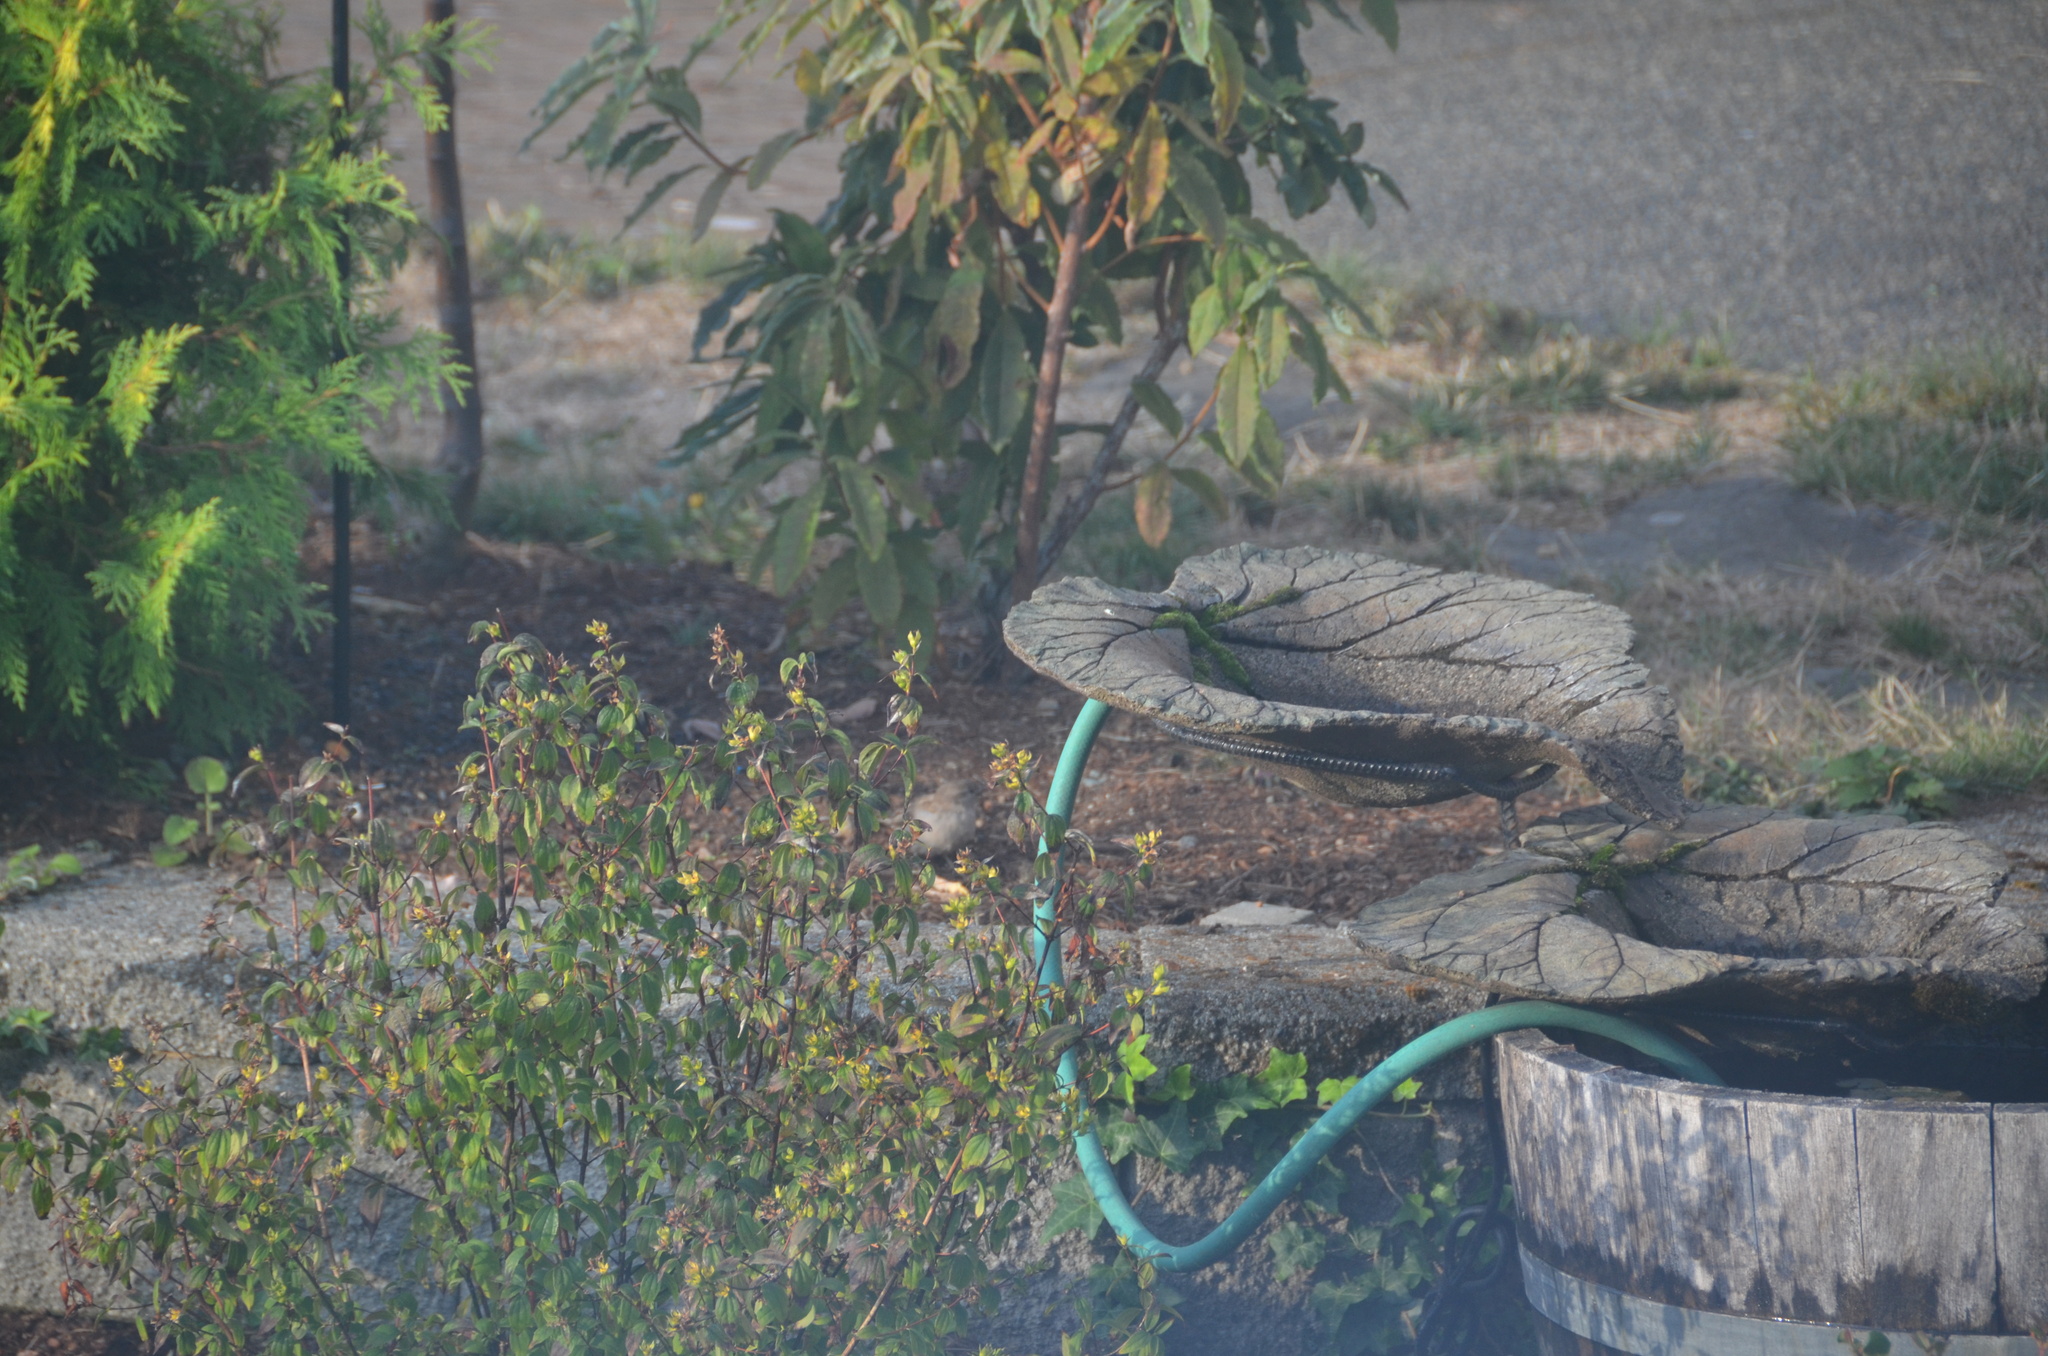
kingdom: Animalia
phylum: Chordata
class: Aves
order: Passeriformes
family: Passeridae
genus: Passer
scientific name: Passer domesticus
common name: House sparrow
